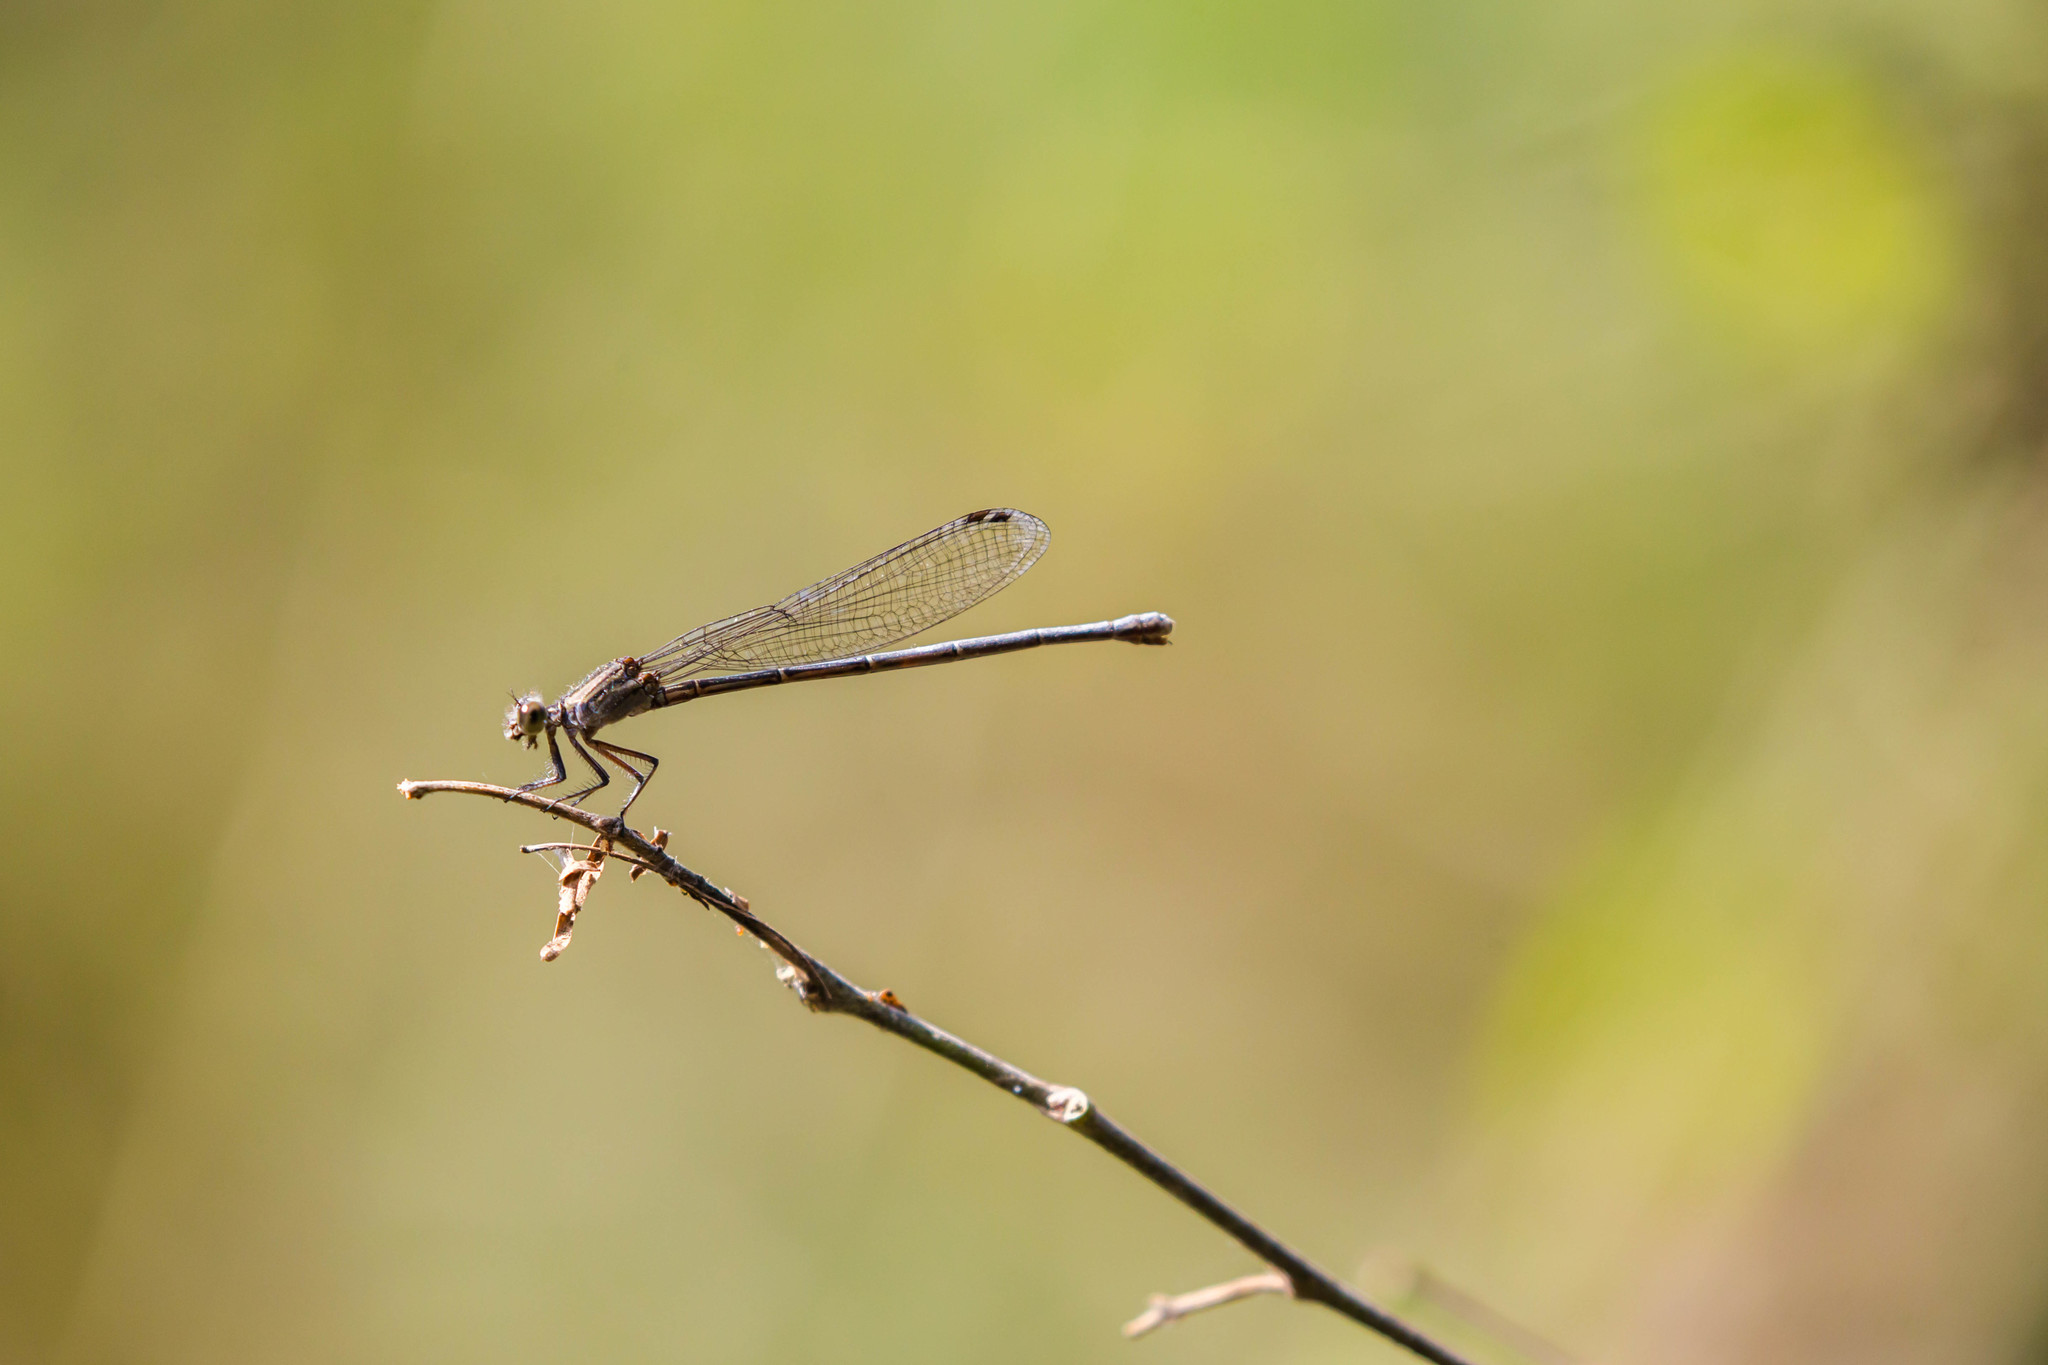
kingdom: Animalia
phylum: Arthropoda
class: Insecta
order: Odonata
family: Coenagrionidae
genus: Argia
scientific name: Argia translata
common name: Dusky dancer
